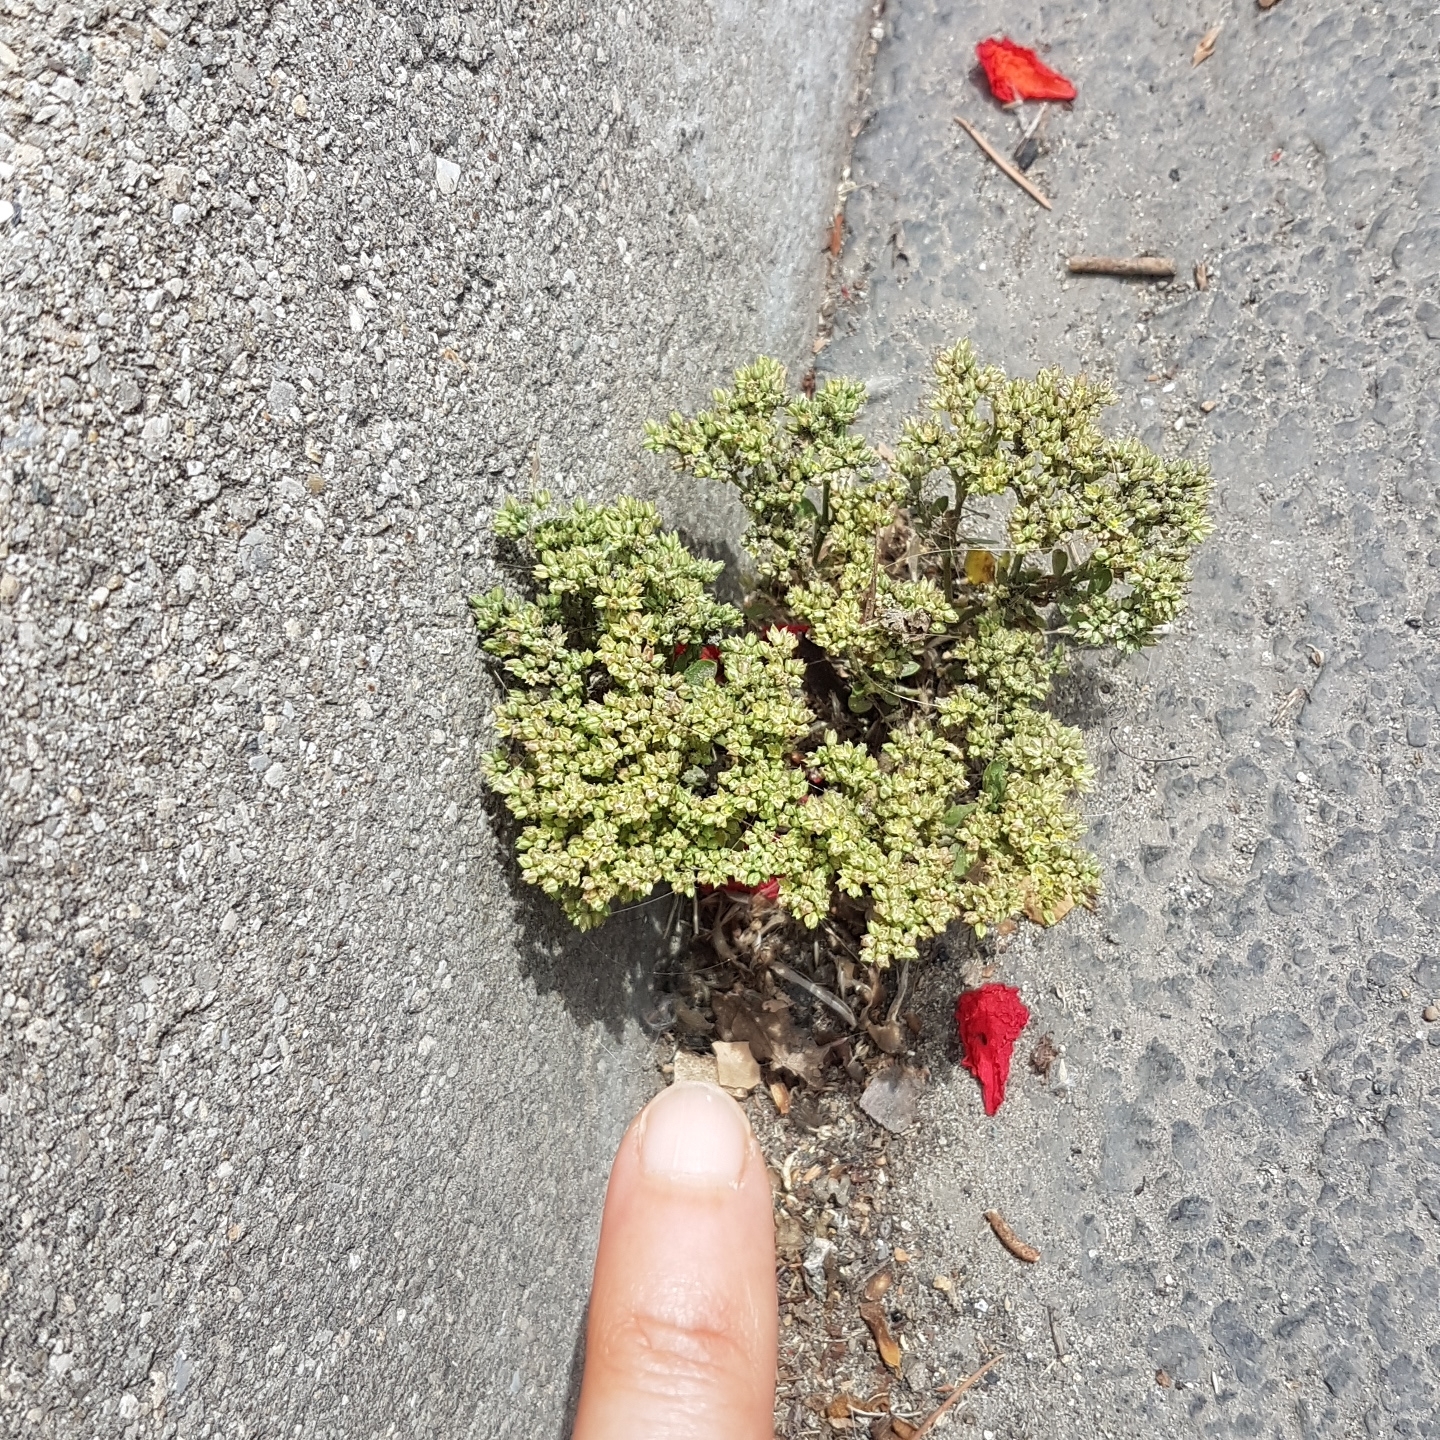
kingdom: Plantae
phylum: Tracheophyta
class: Magnoliopsida
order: Caryophyllales
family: Caryophyllaceae
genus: Scleranthus
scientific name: Scleranthus perennis
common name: Perennial knawel
